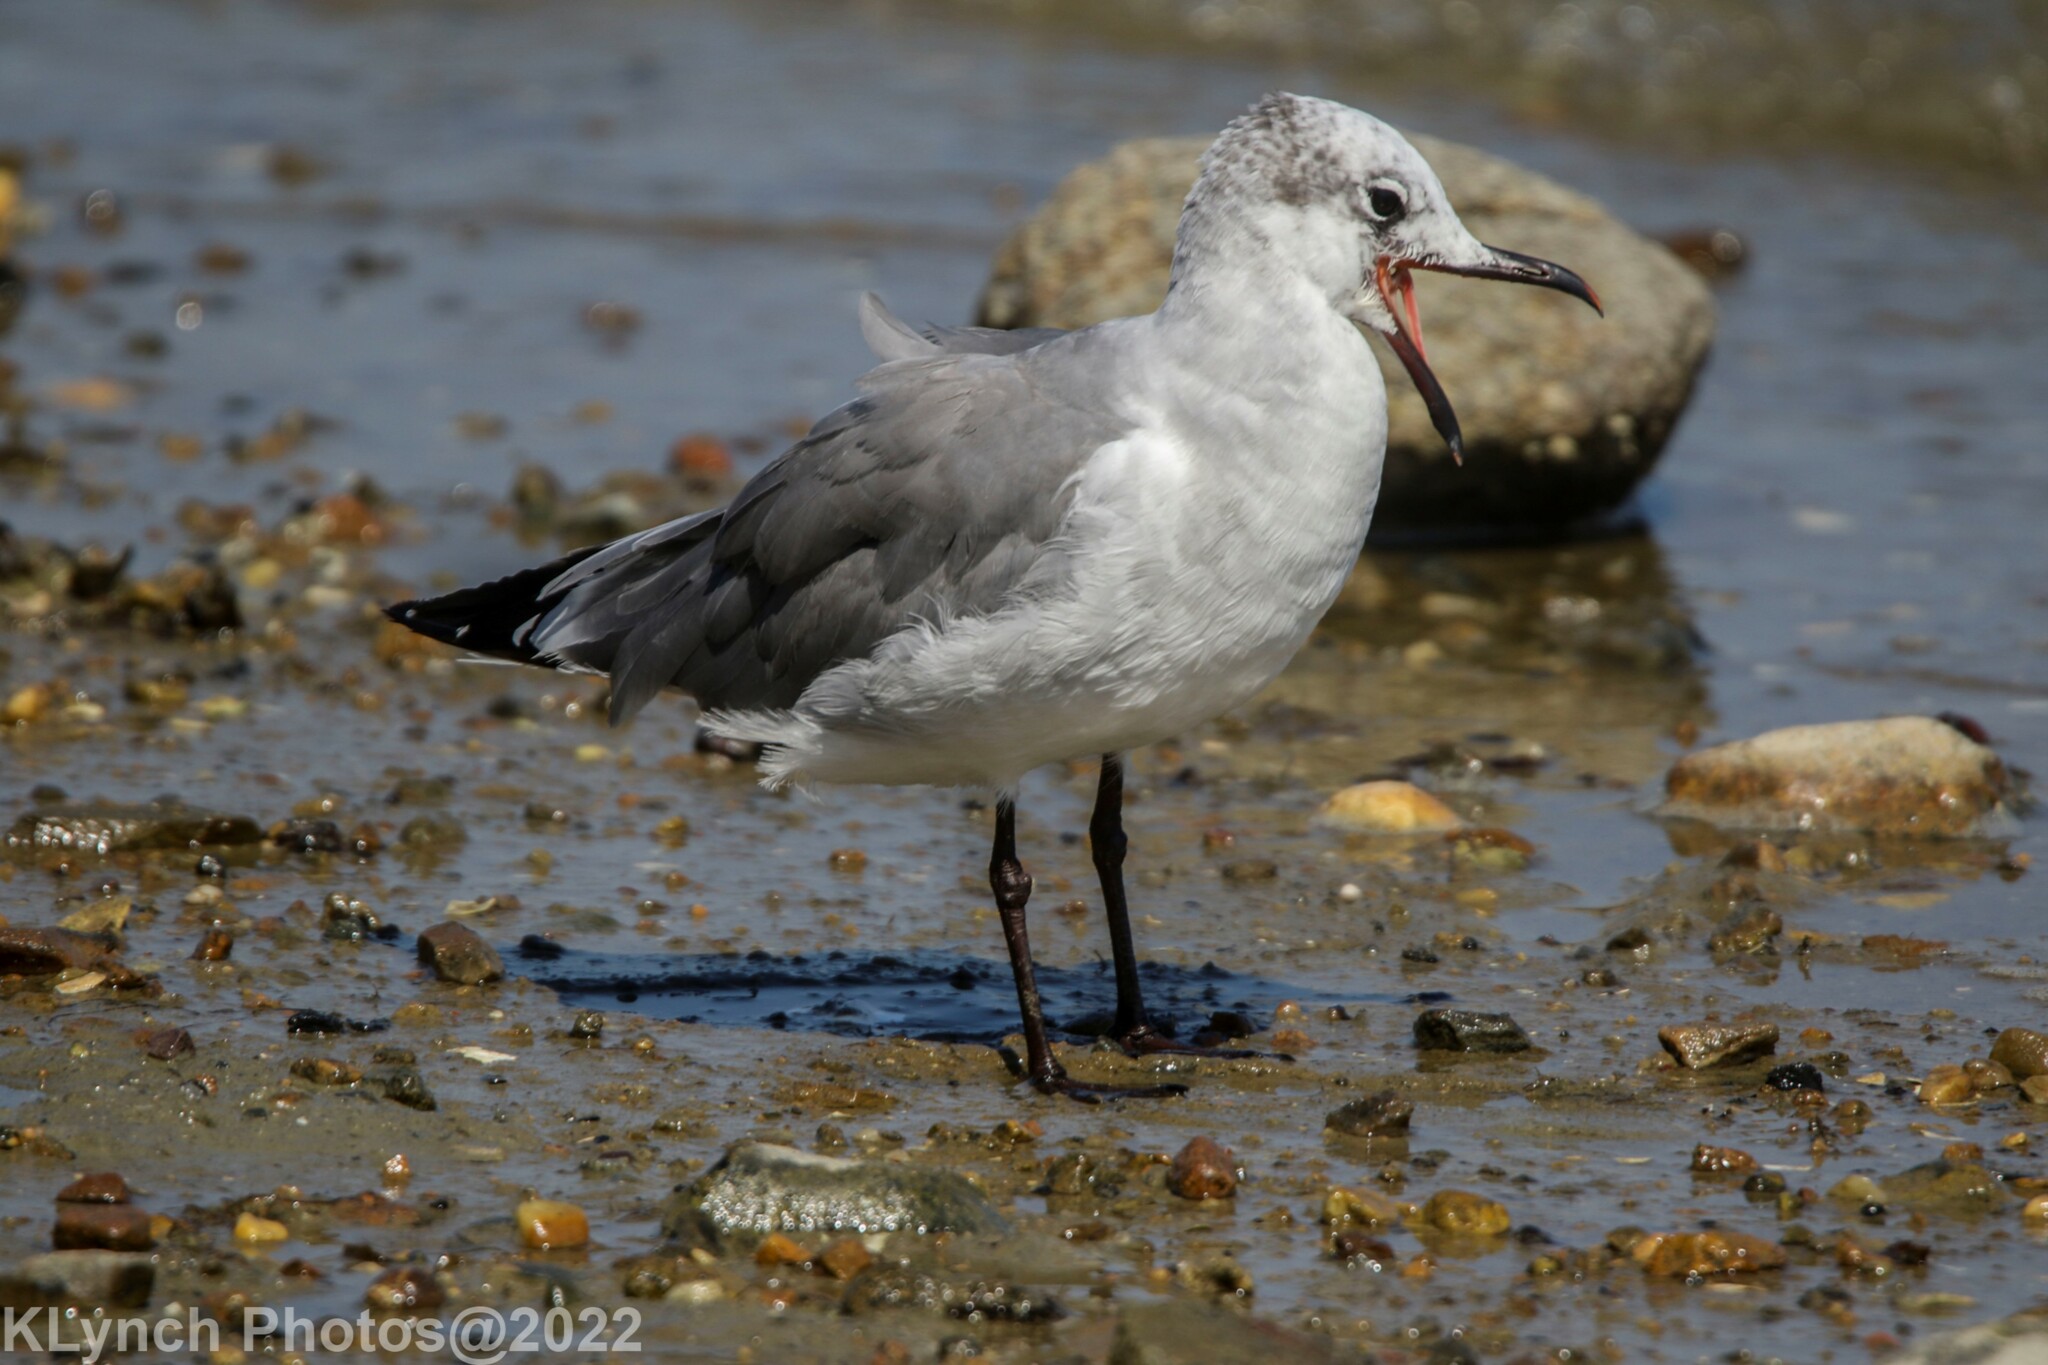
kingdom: Animalia
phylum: Chordata
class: Aves
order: Charadriiformes
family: Laridae
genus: Leucophaeus
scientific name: Leucophaeus atricilla
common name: Laughing gull
